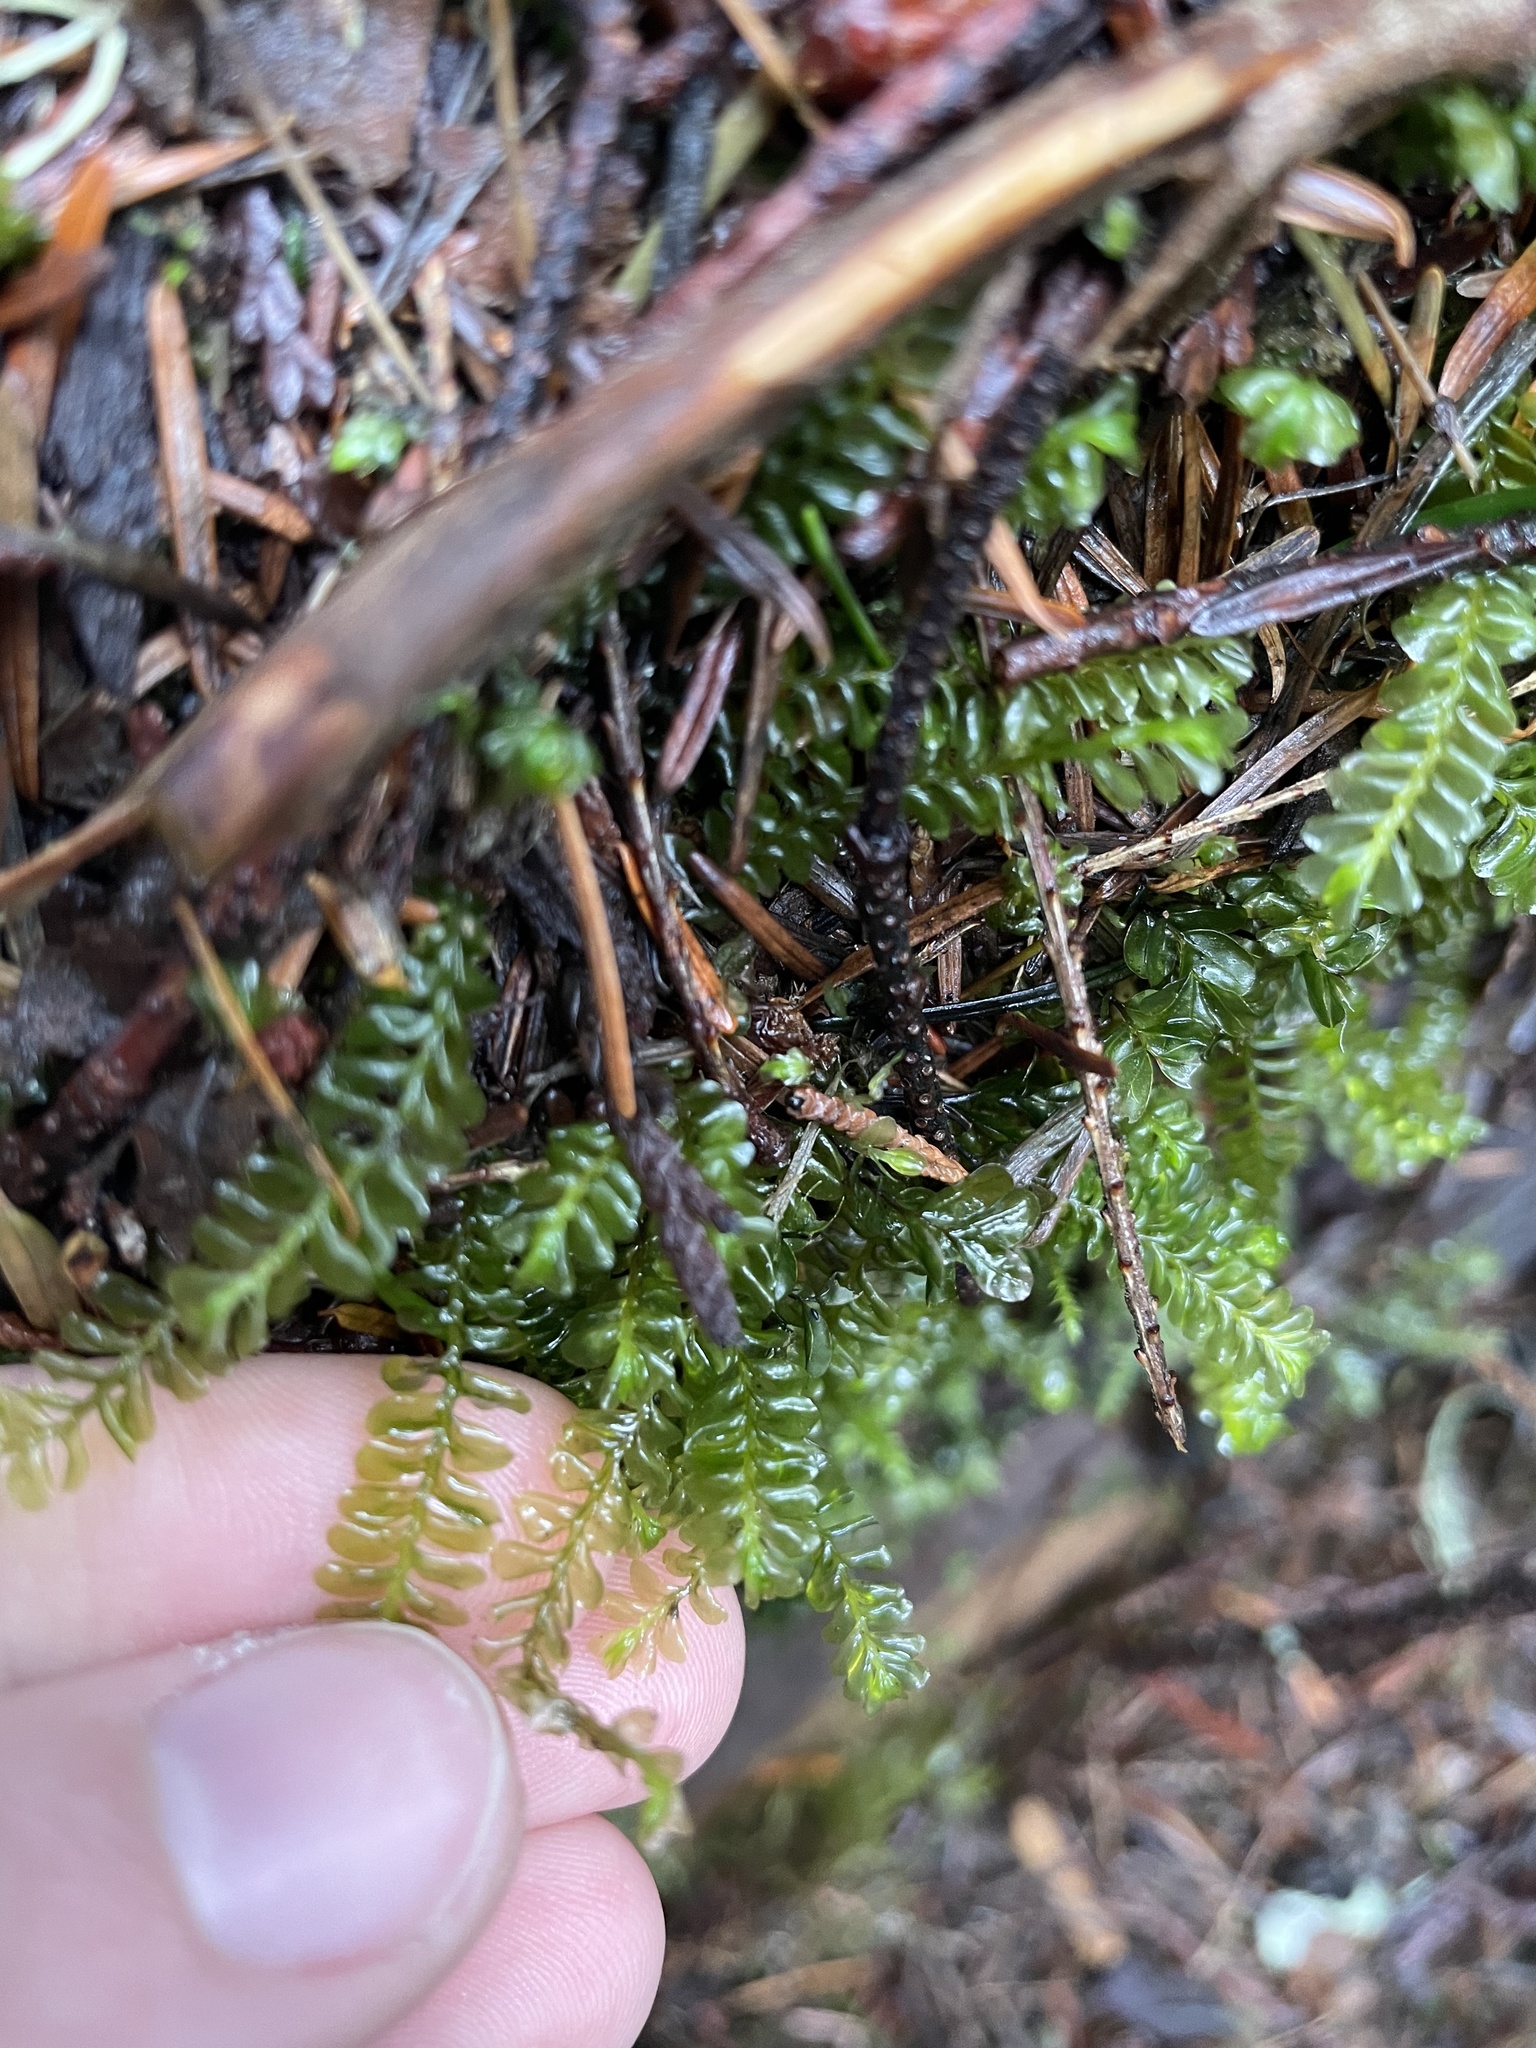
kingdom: Plantae
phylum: Marchantiophyta
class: Jungermanniopsida
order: Jungermanniales
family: Plagiochilaceae
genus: Plagiochila
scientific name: Plagiochila porelloides
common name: Lesser featherwort
